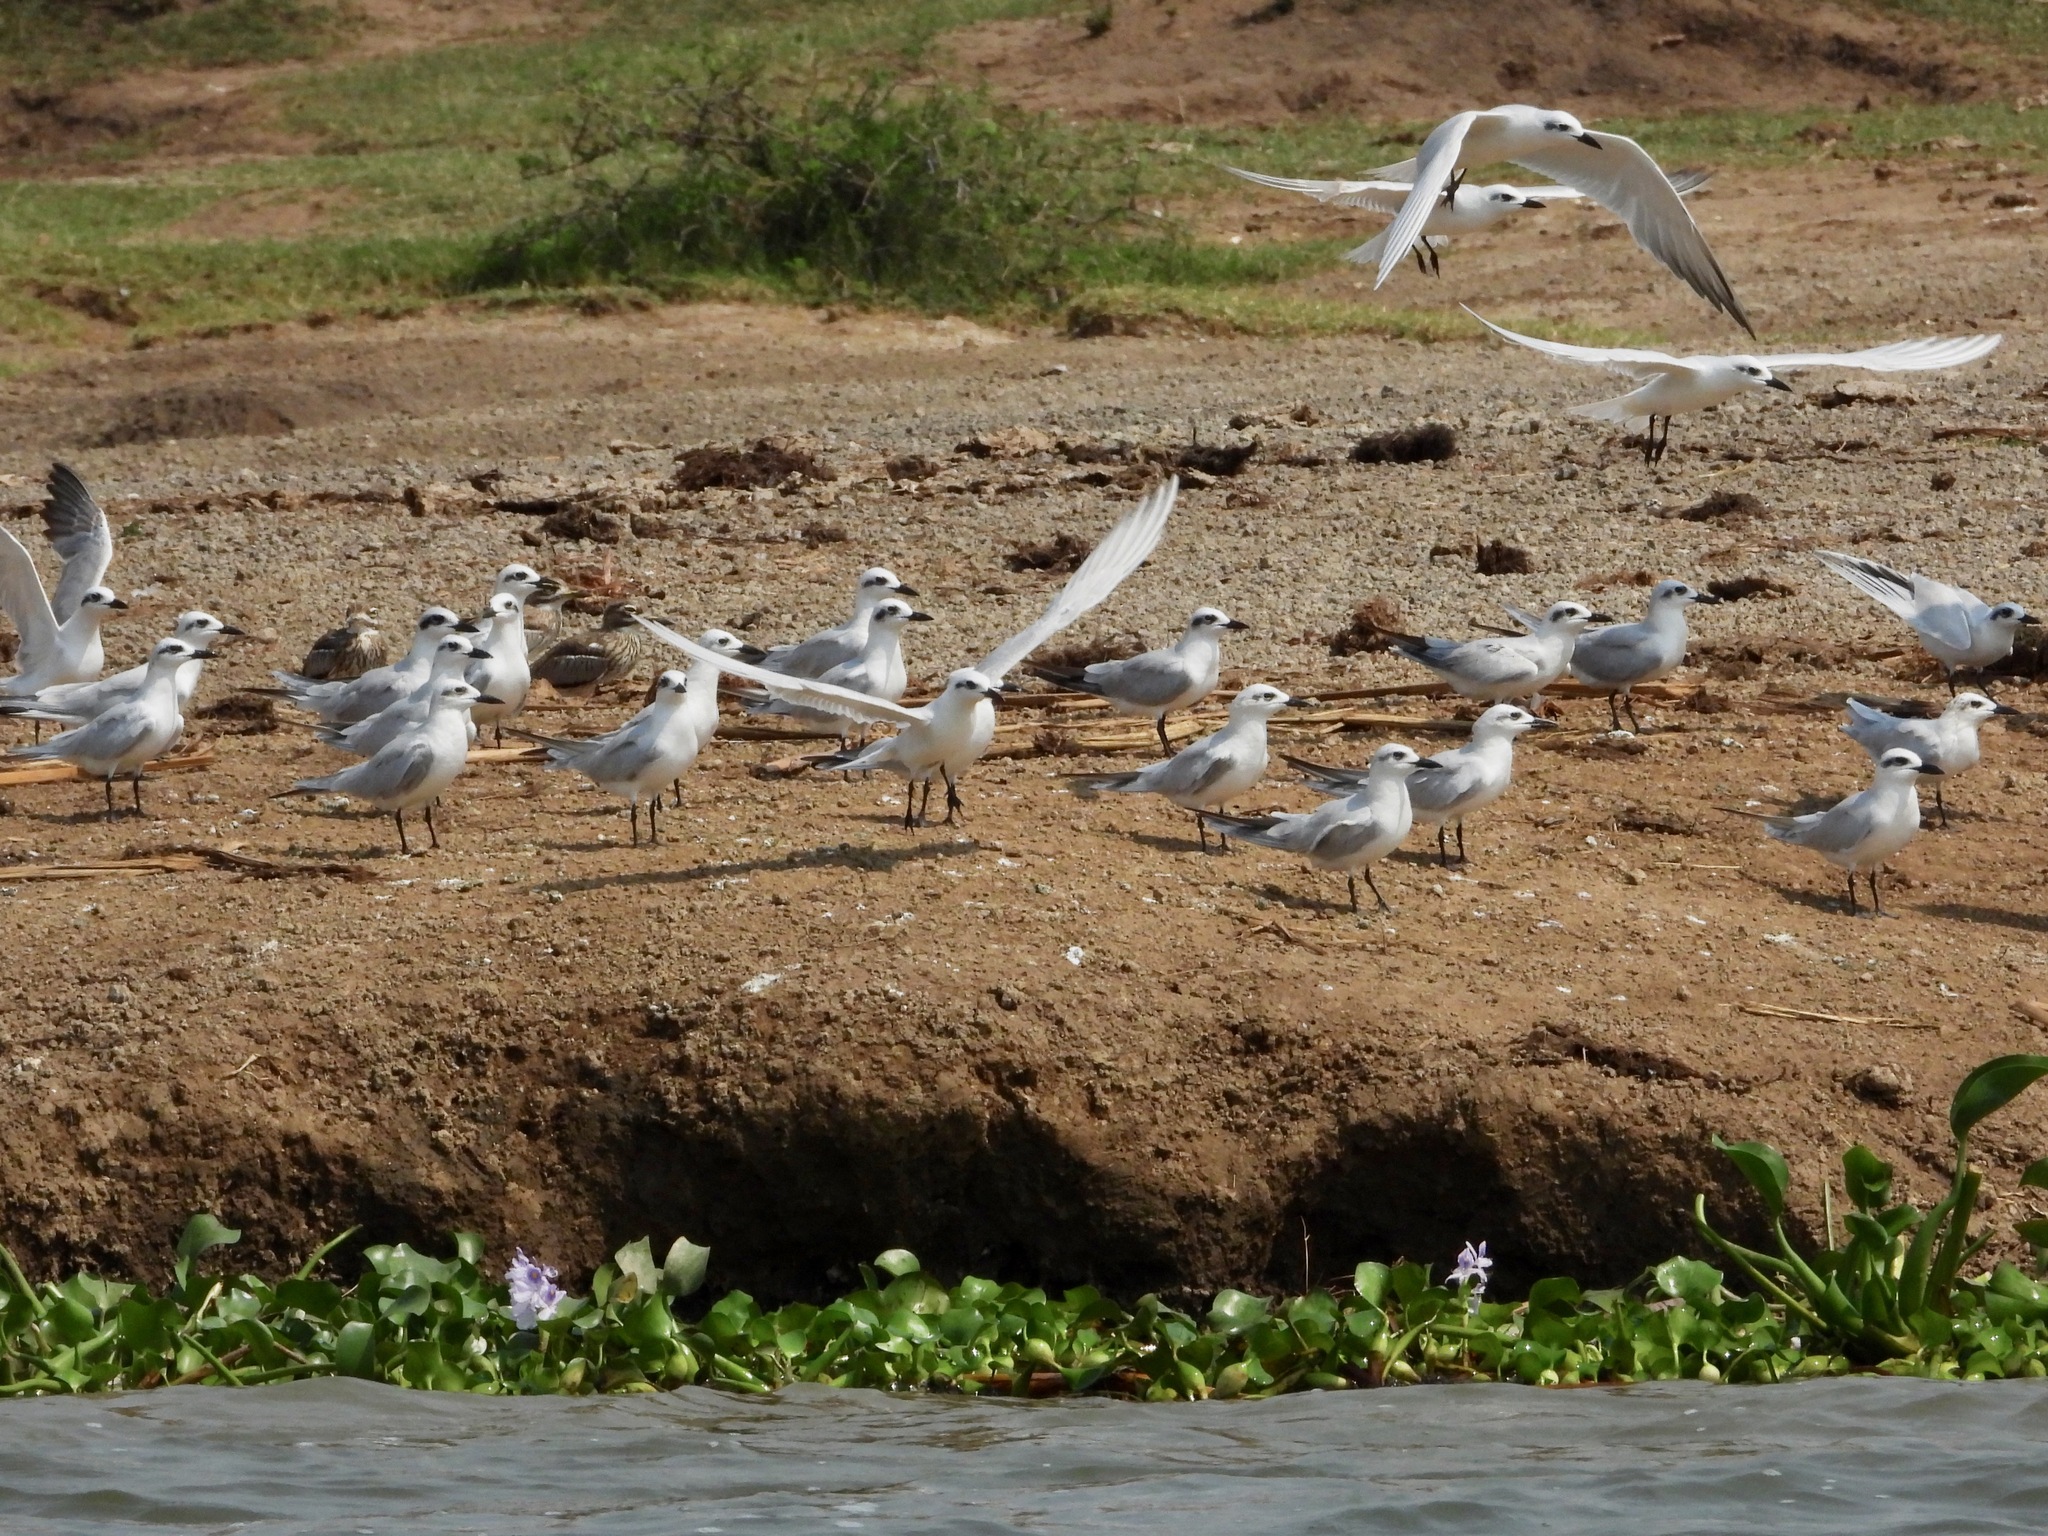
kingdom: Animalia
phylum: Chordata
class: Aves
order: Charadriiformes
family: Laridae
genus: Gelochelidon
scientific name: Gelochelidon nilotica
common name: Gull-billed tern
